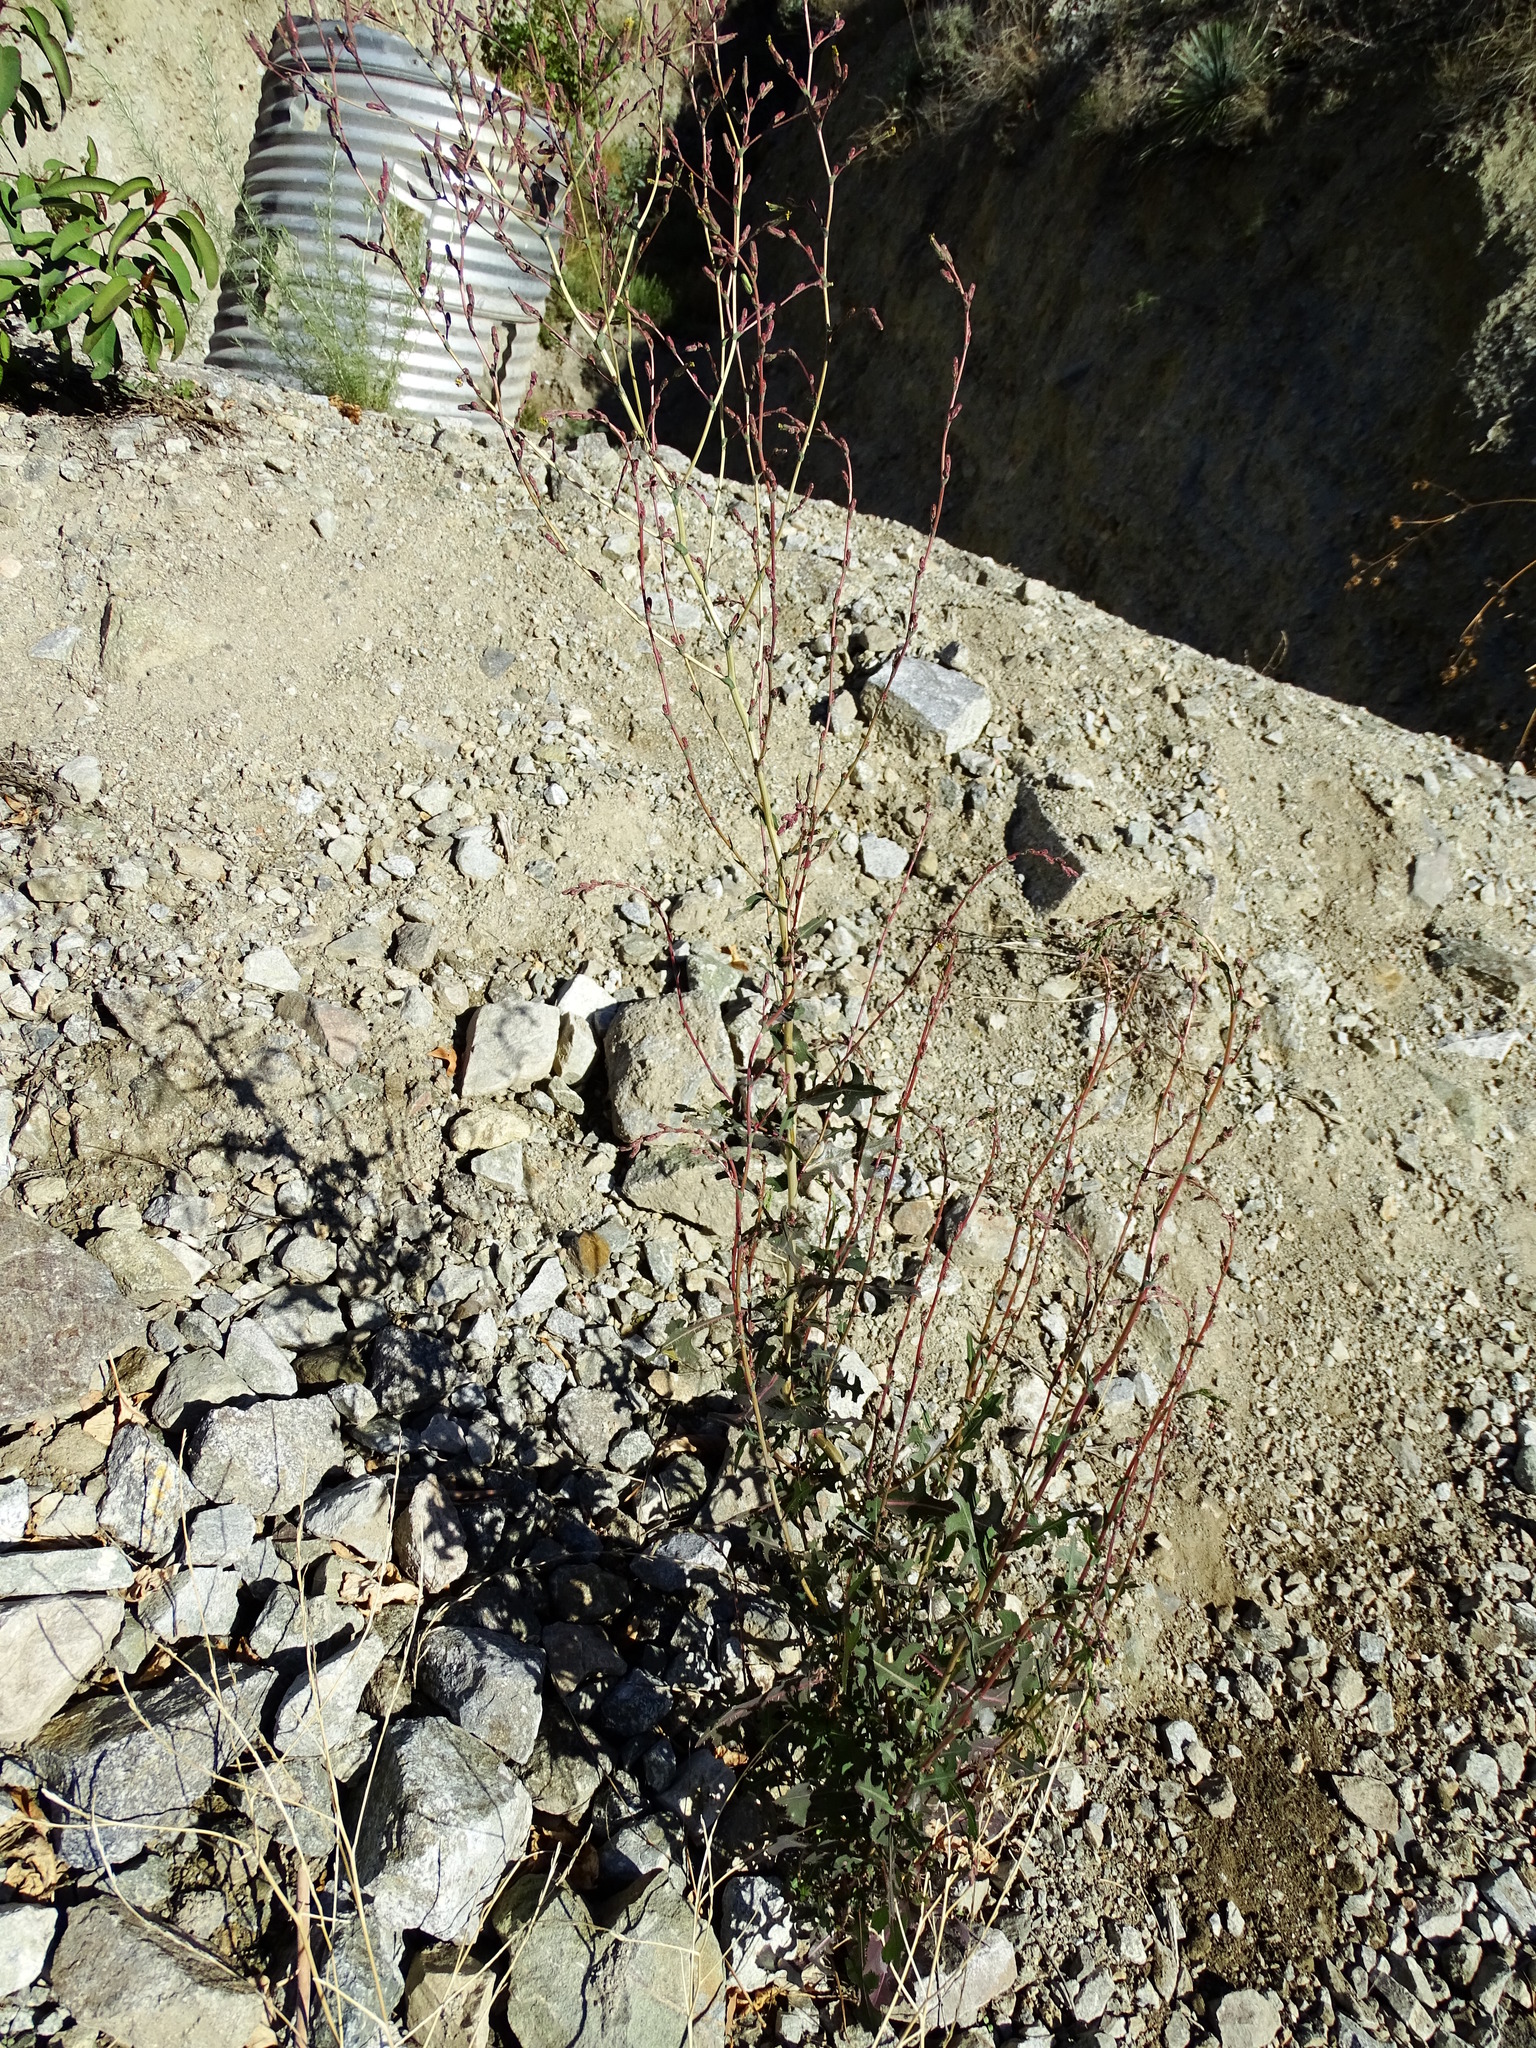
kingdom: Plantae
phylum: Tracheophyta
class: Magnoliopsida
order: Asterales
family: Asteraceae
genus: Lactuca
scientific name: Lactuca serriola
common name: Prickly lettuce
